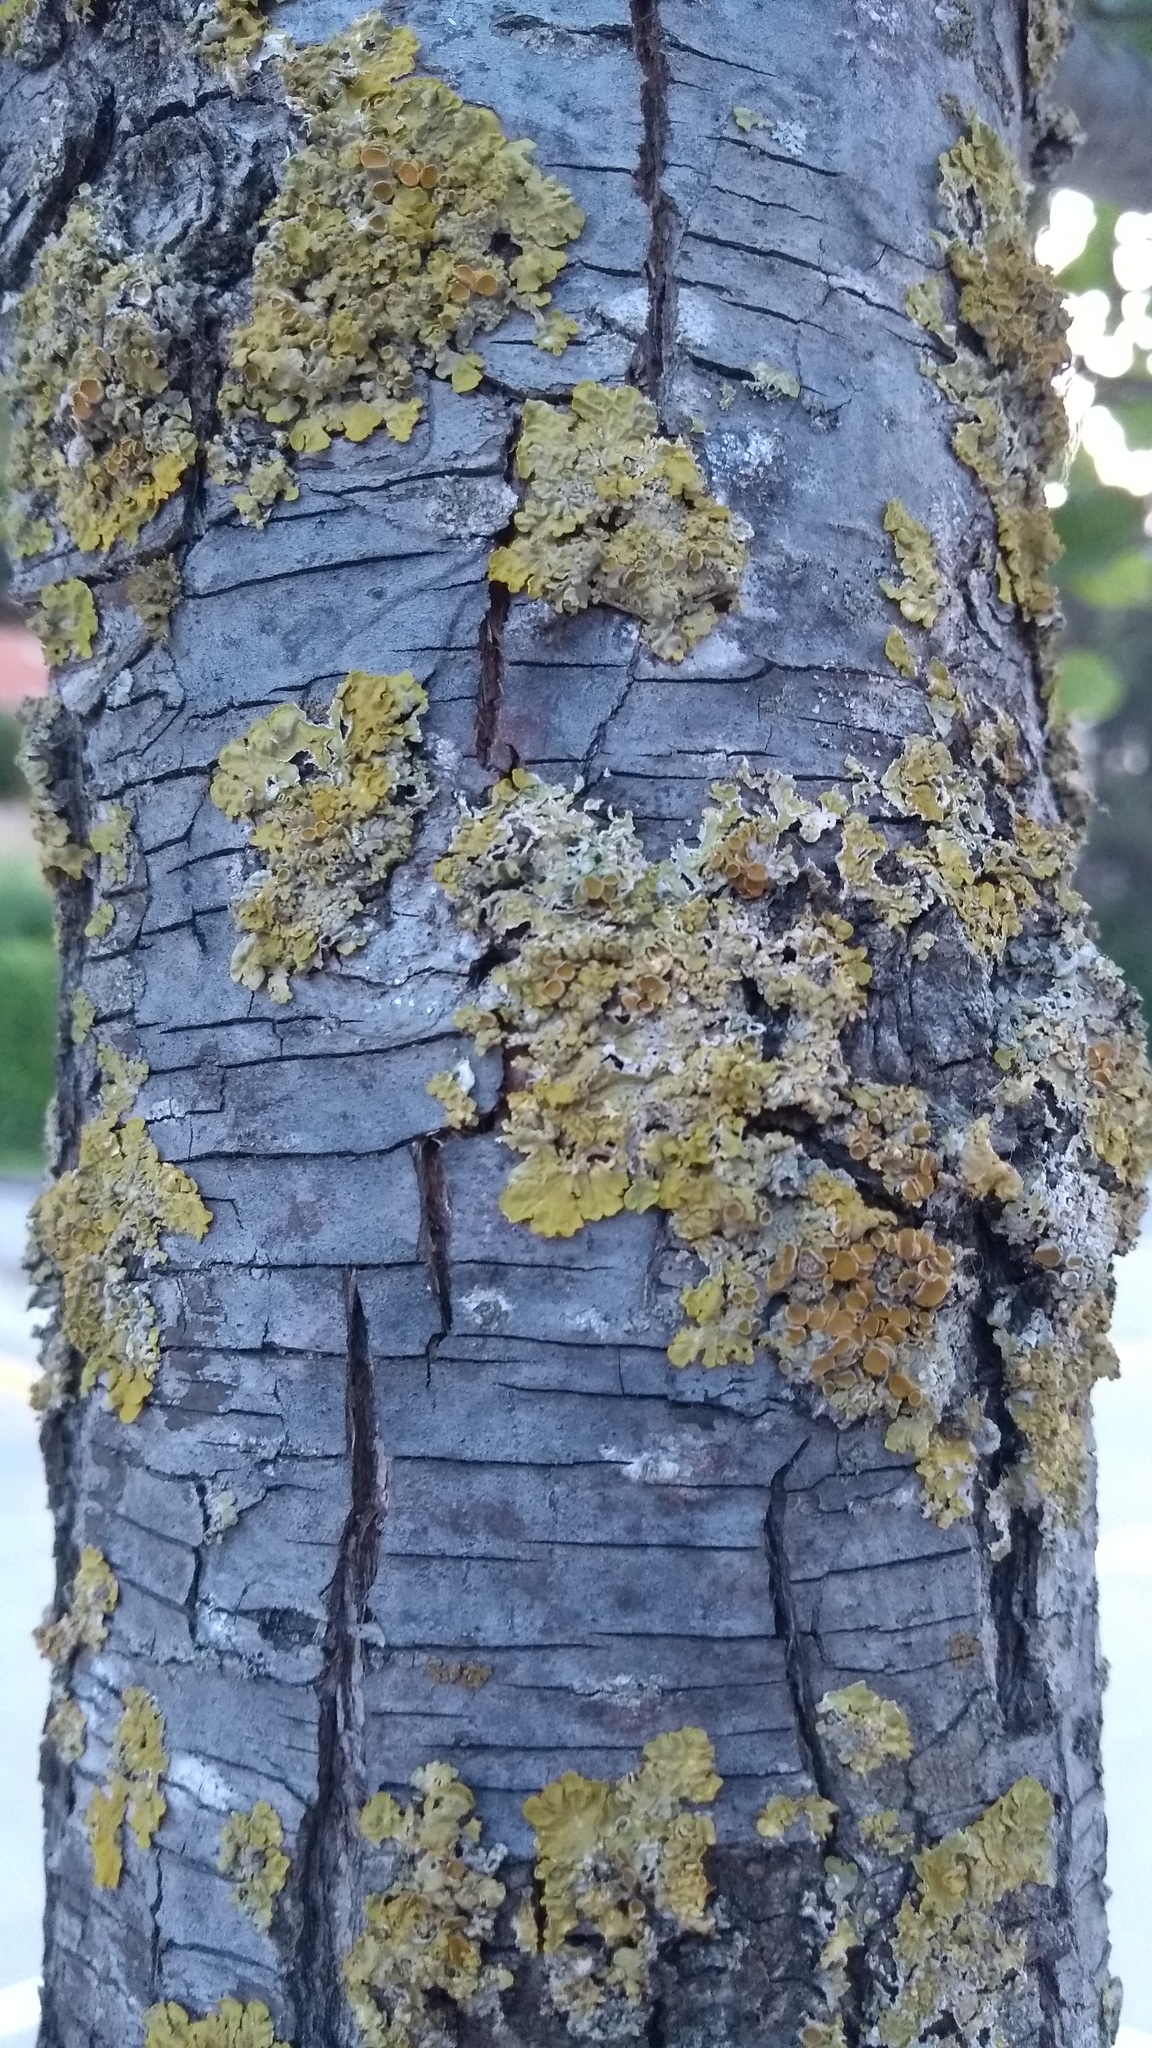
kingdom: Fungi
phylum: Ascomycota
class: Lecanoromycetes
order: Teloschistales
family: Teloschistaceae
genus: Xanthoria
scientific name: Xanthoria parietina
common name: Common orange lichen
